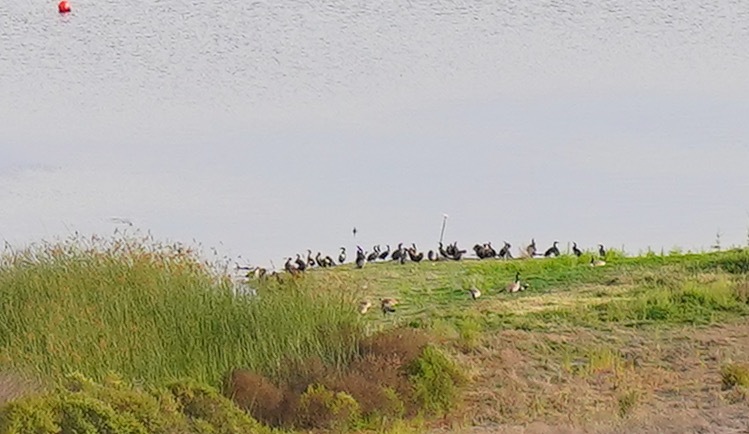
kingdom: Animalia
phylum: Chordata
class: Aves
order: Suliformes
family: Phalacrocoracidae
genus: Phalacrocorax
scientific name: Phalacrocorax auritus
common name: Double-crested cormorant
